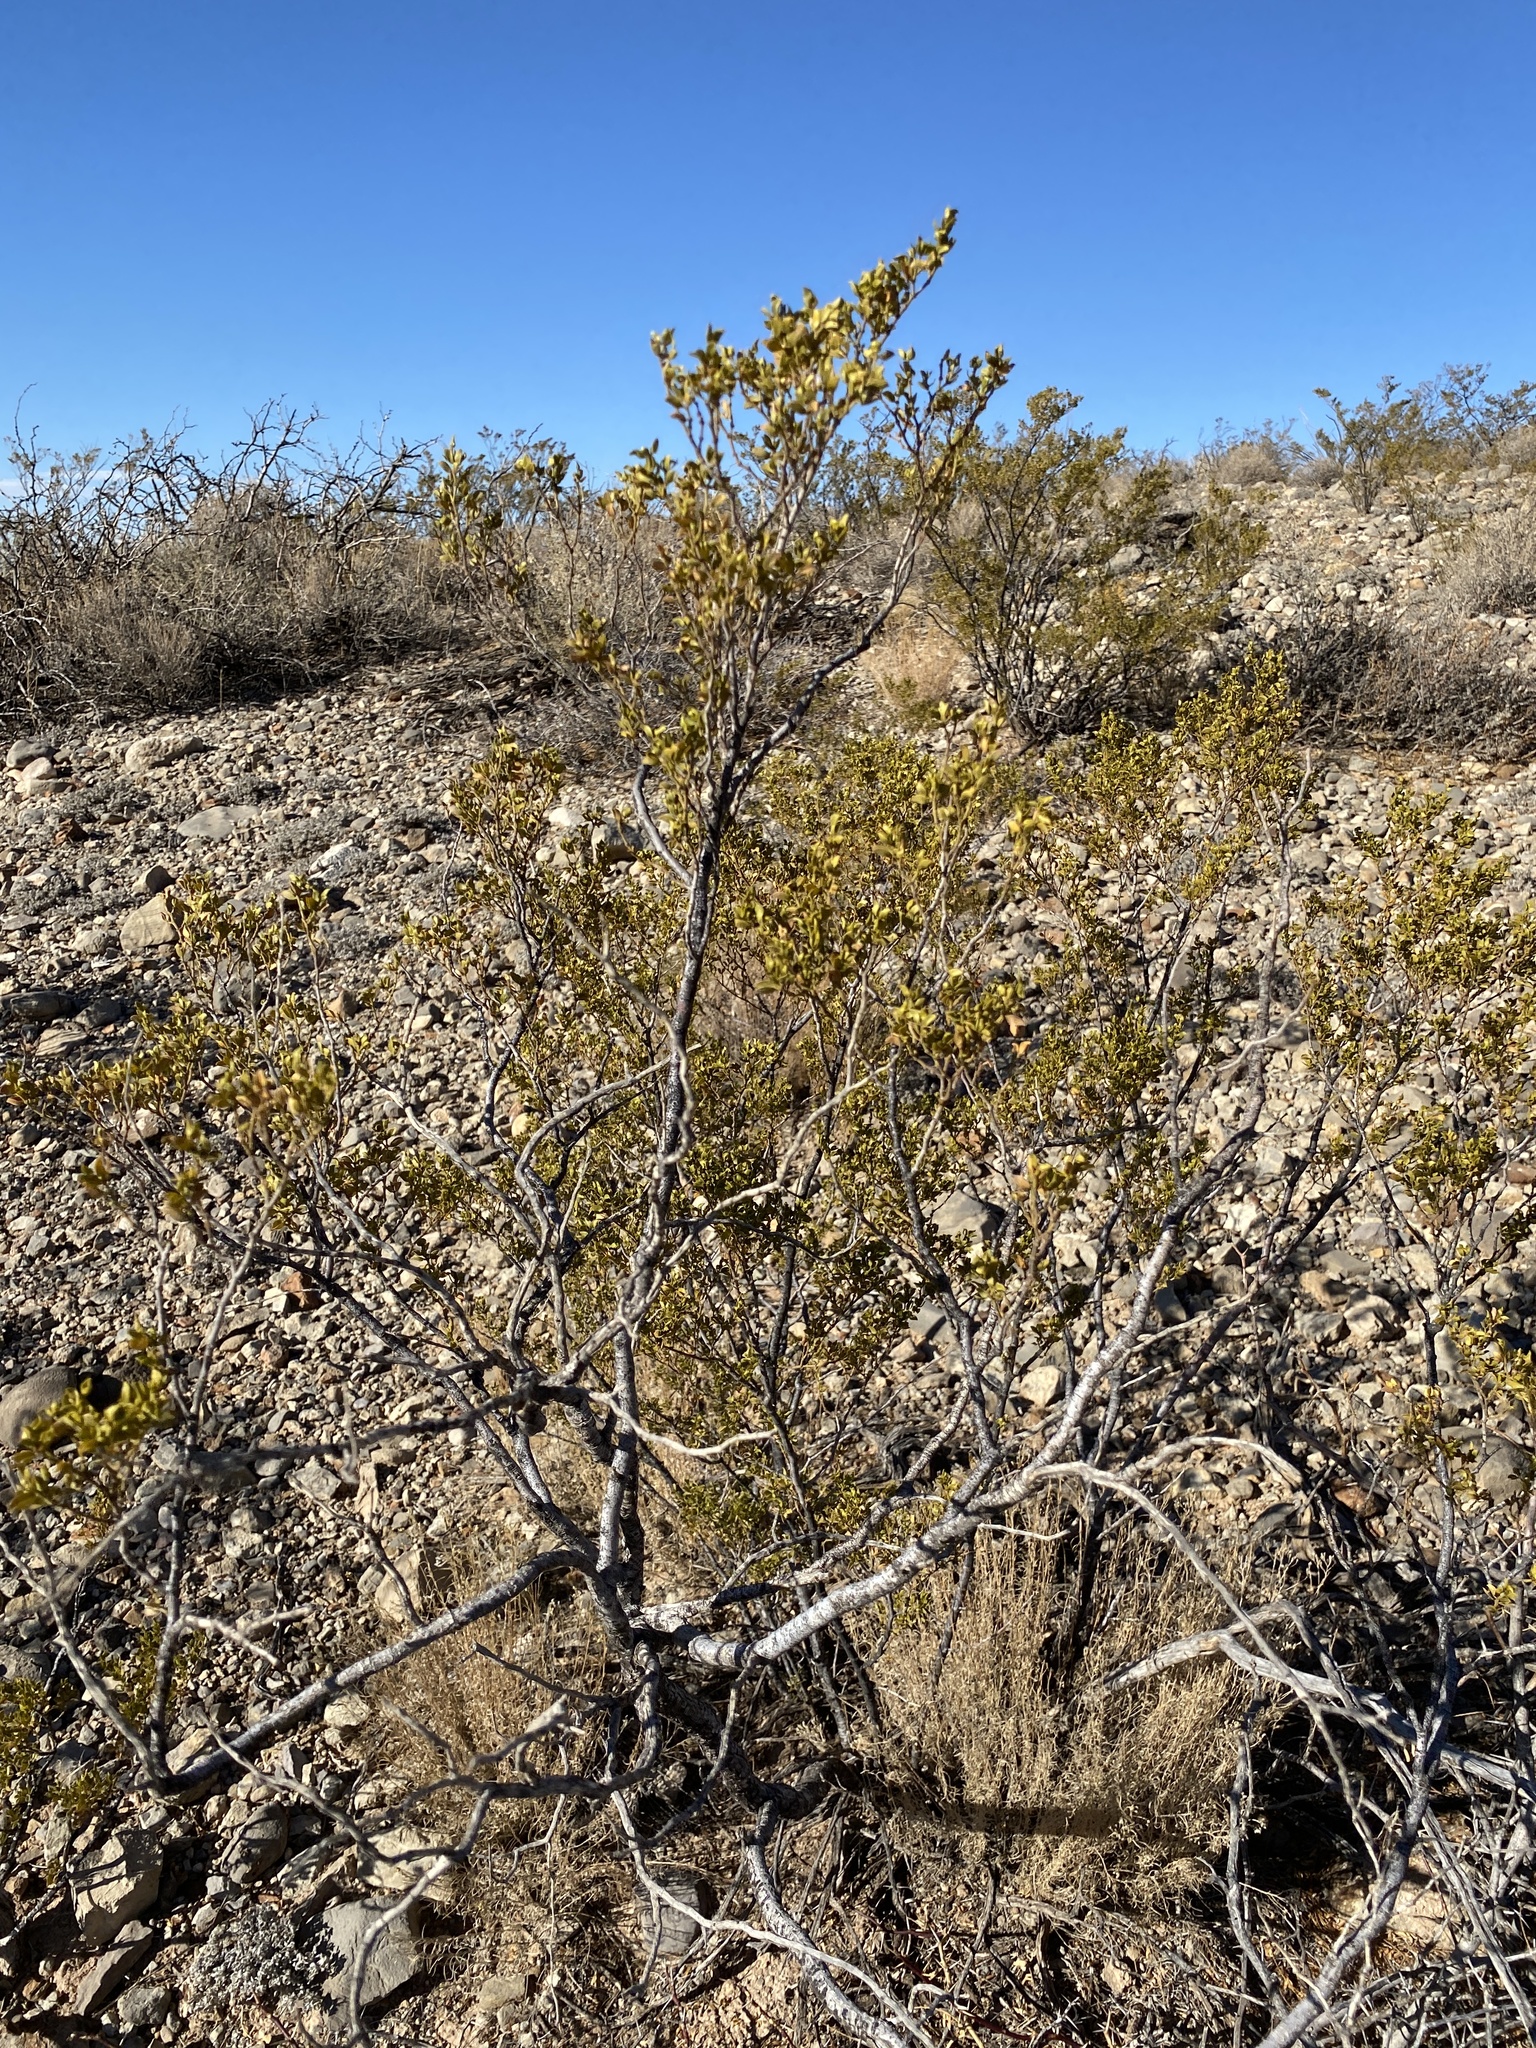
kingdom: Plantae
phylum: Tracheophyta
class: Magnoliopsida
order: Zygophyllales
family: Zygophyllaceae
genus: Larrea
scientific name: Larrea tridentata
